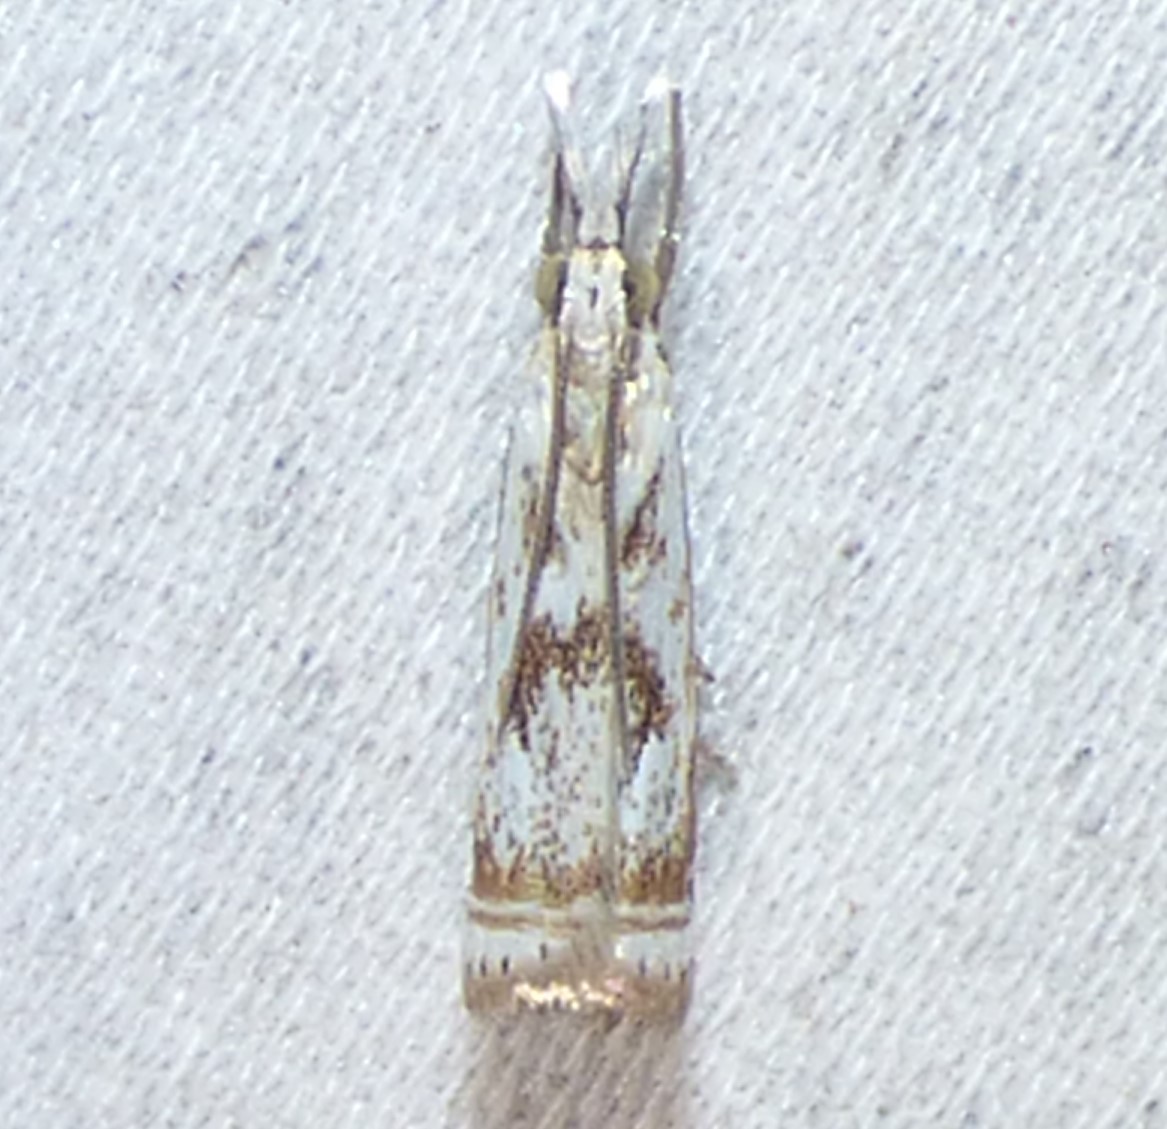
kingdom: Animalia
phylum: Arthropoda
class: Insecta
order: Lepidoptera
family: Crambidae
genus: Microcrambus
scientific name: Microcrambus elegans
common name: Elegant grass-veneer
